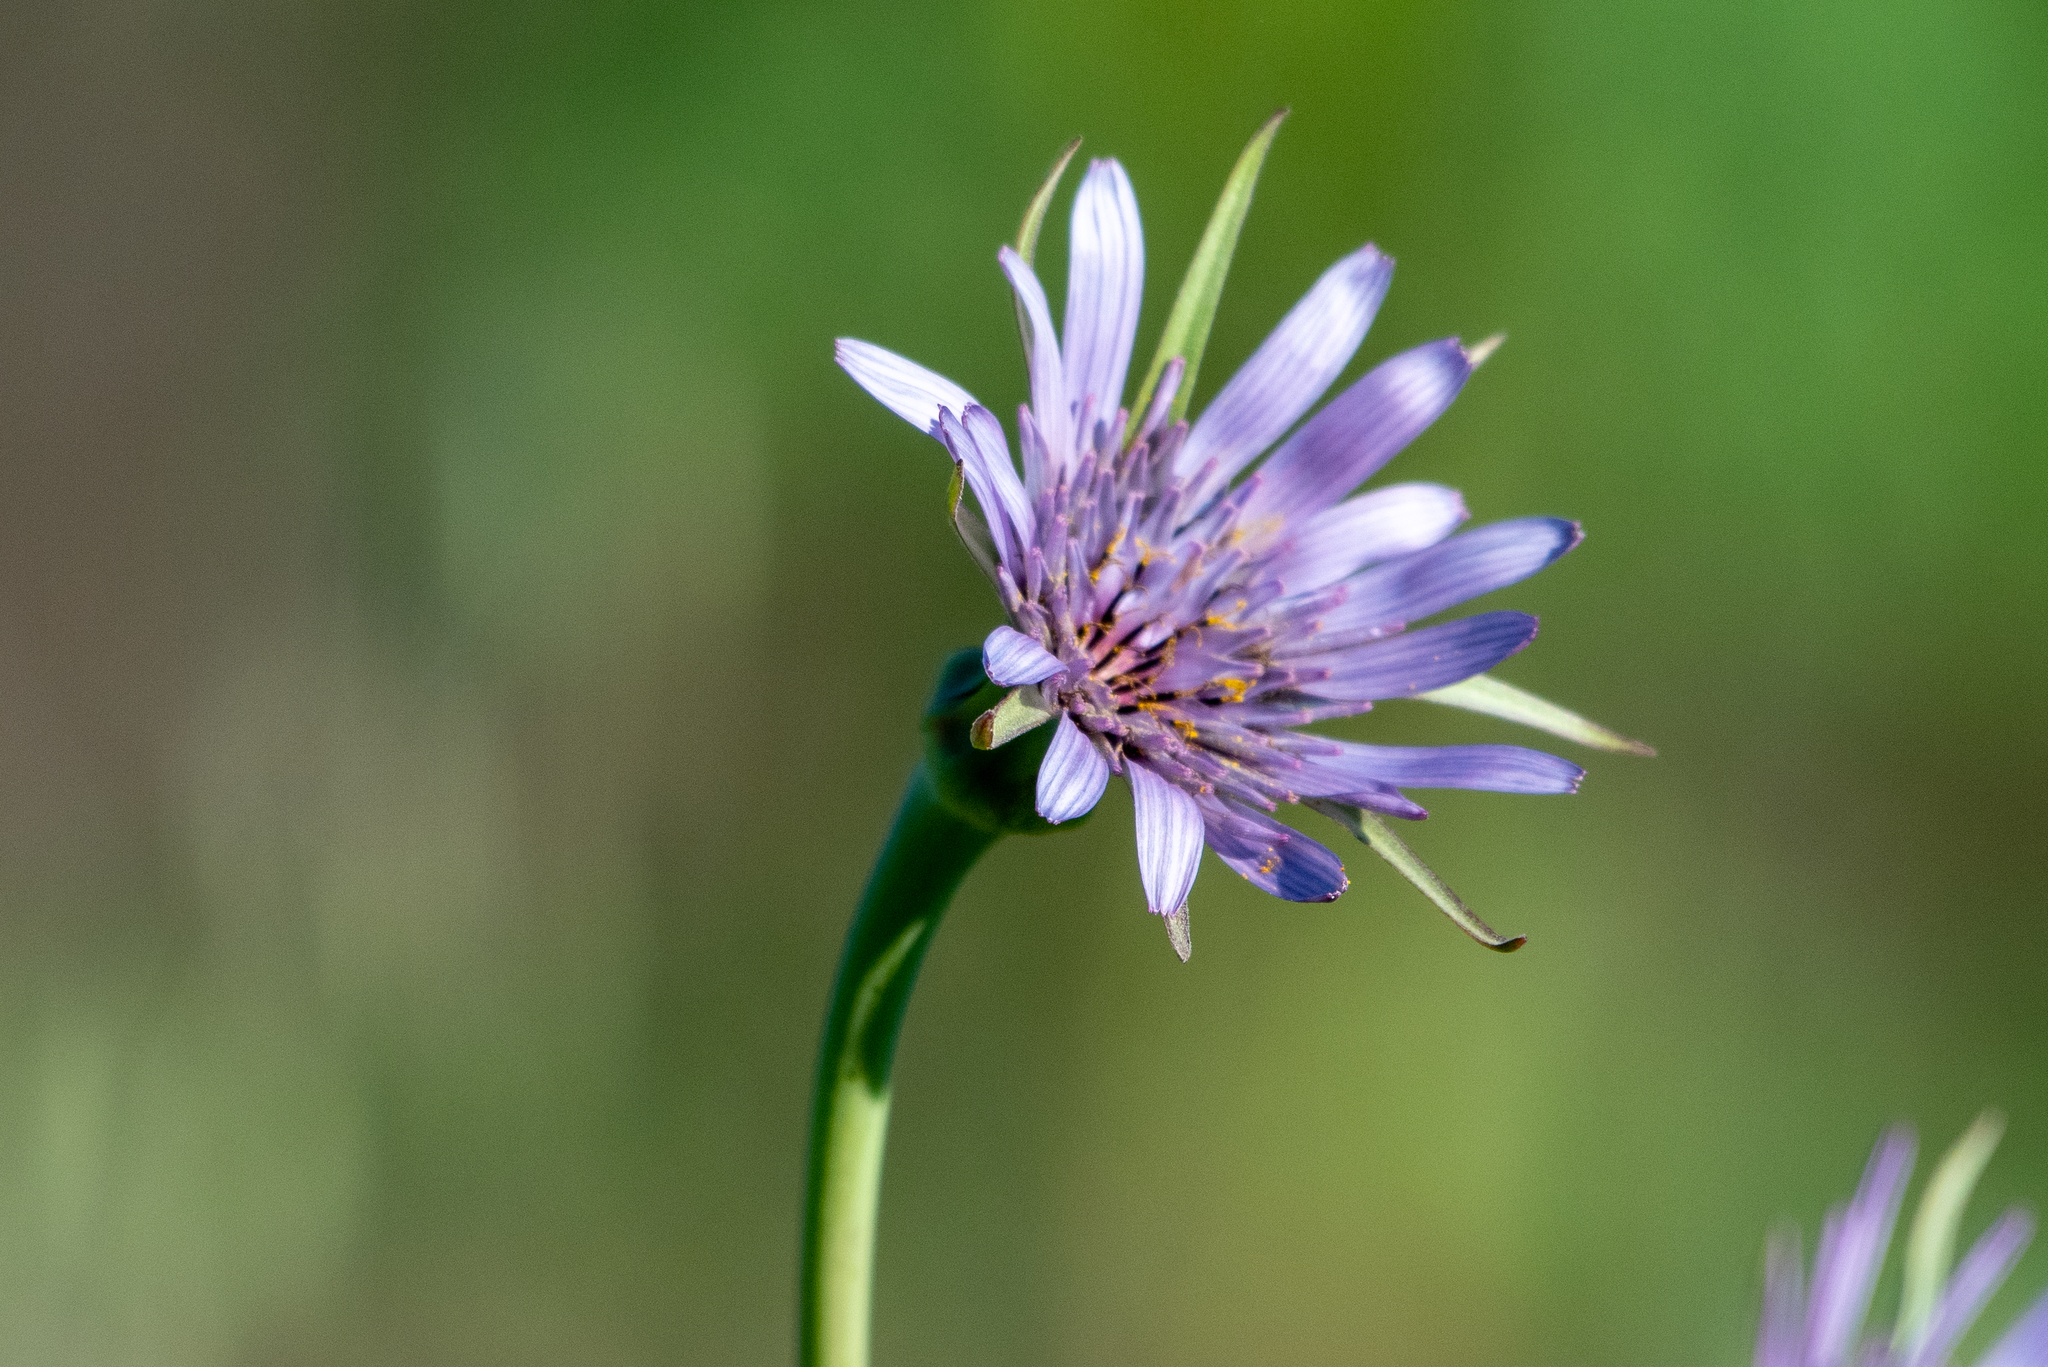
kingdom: Plantae
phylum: Tracheophyta
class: Magnoliopsida
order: Asterales
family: Asteraceae
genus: Tragopogon
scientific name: Tragopogon porrifolius
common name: Salsify
